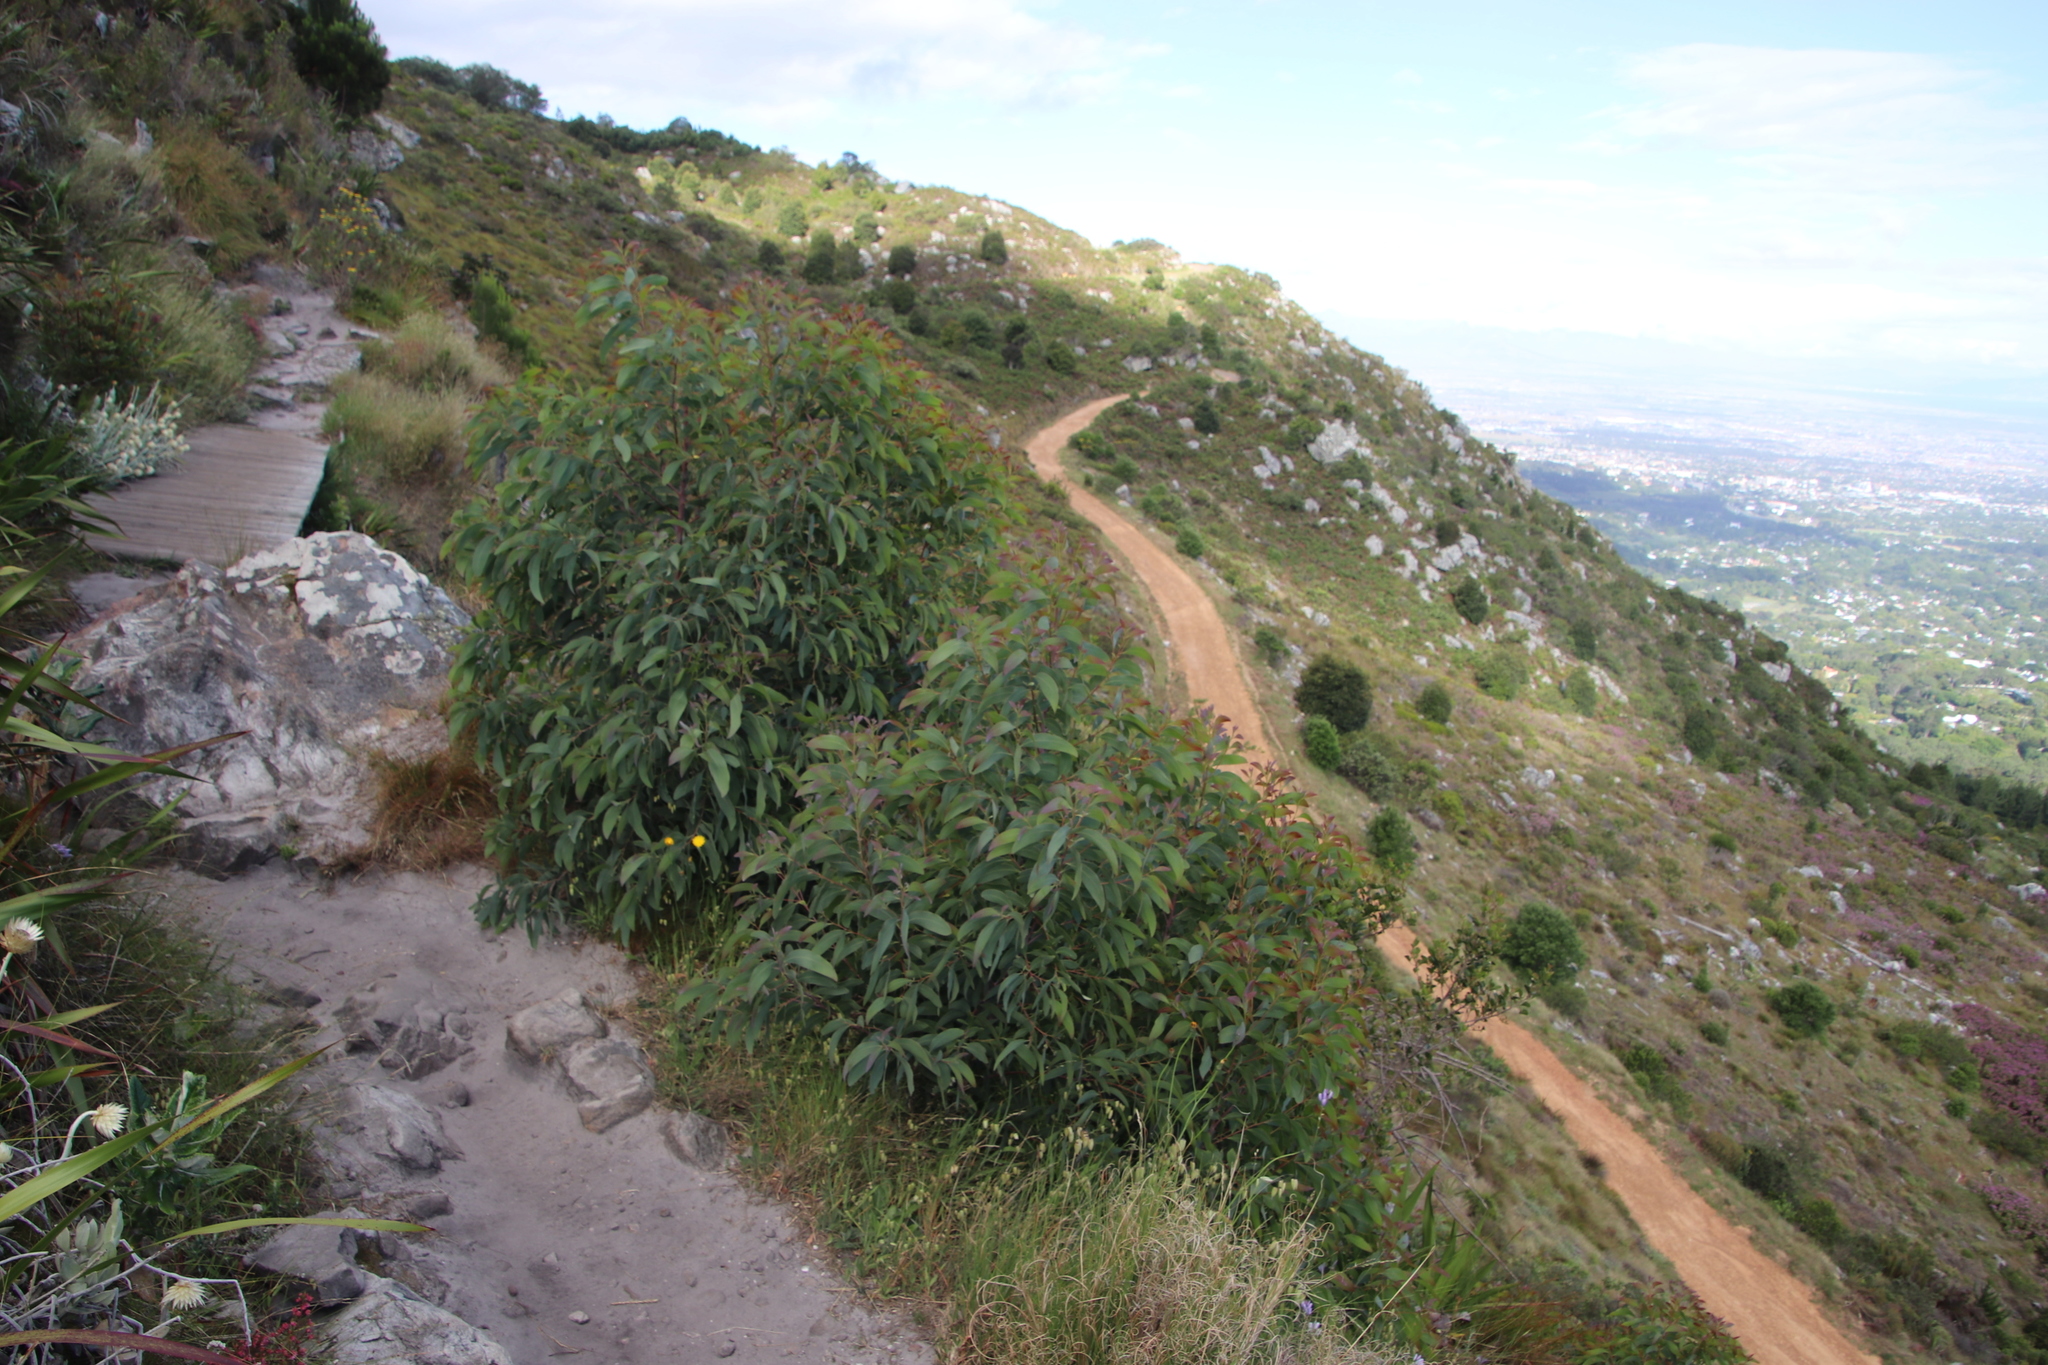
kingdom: Plantae
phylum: Tracheophyta
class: Magnoliopsida
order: Fabales
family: Fabaceae
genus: Acacia
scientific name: Acacia falciformis
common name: Tanning wattle
